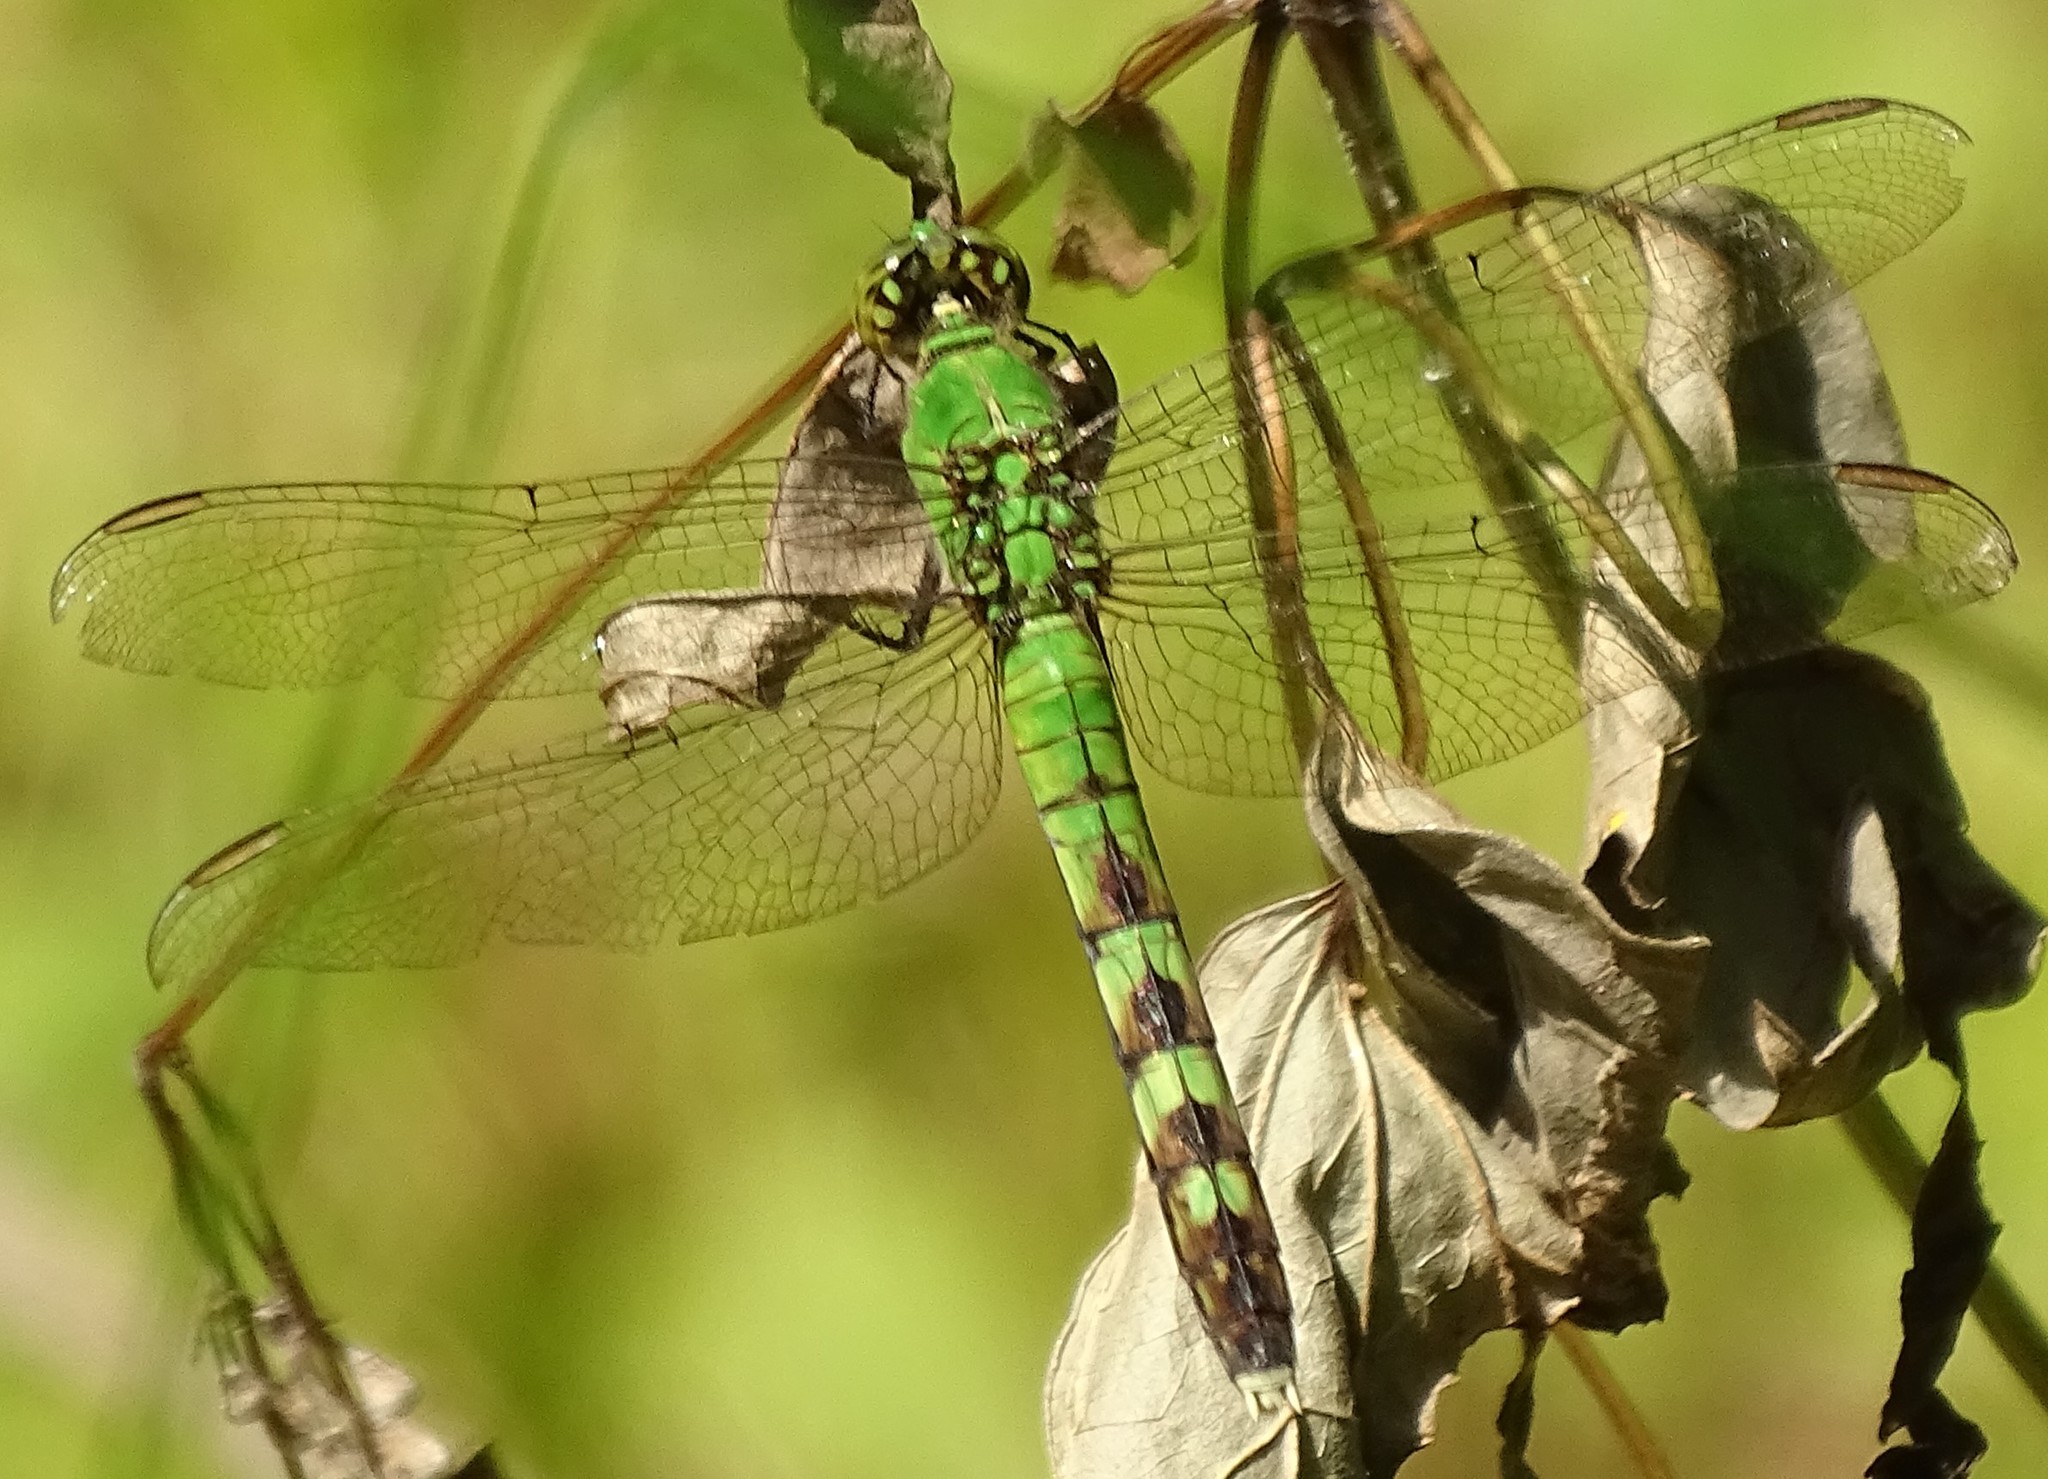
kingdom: Animalia
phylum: Arthropoda
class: Insecta
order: Odonata
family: Libellulidae
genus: Erythemis
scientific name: Erythemis simplicicollis
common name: Eastern pondhawk
